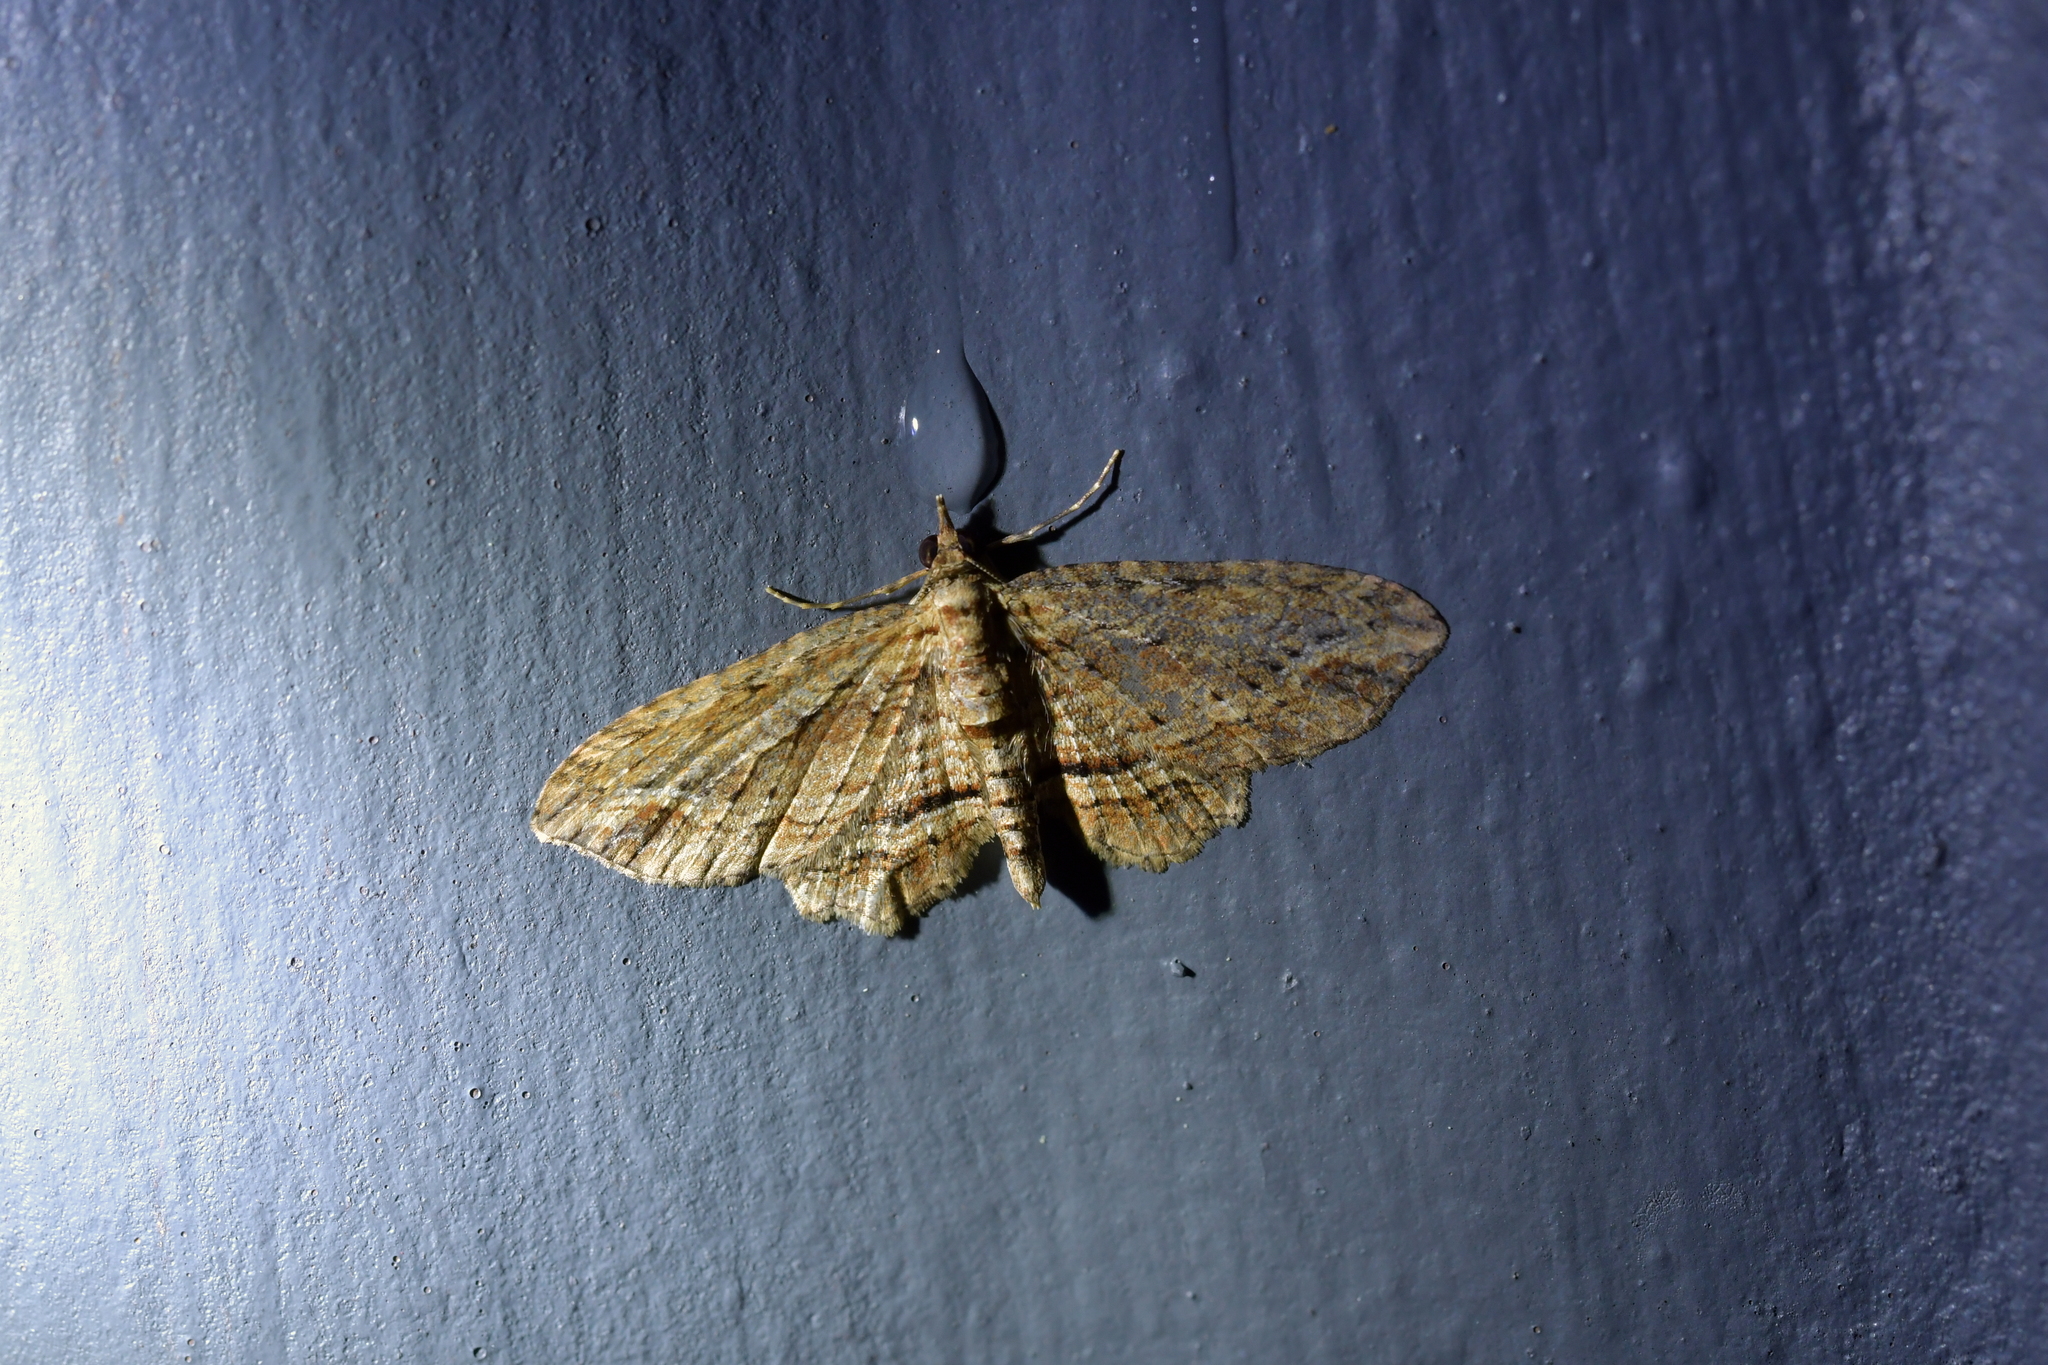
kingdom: Animalia
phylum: Arthropoda
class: Insecta
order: Lepidoptera
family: Geometridae
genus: Chloroclystis
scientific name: Chloroclystis filata
